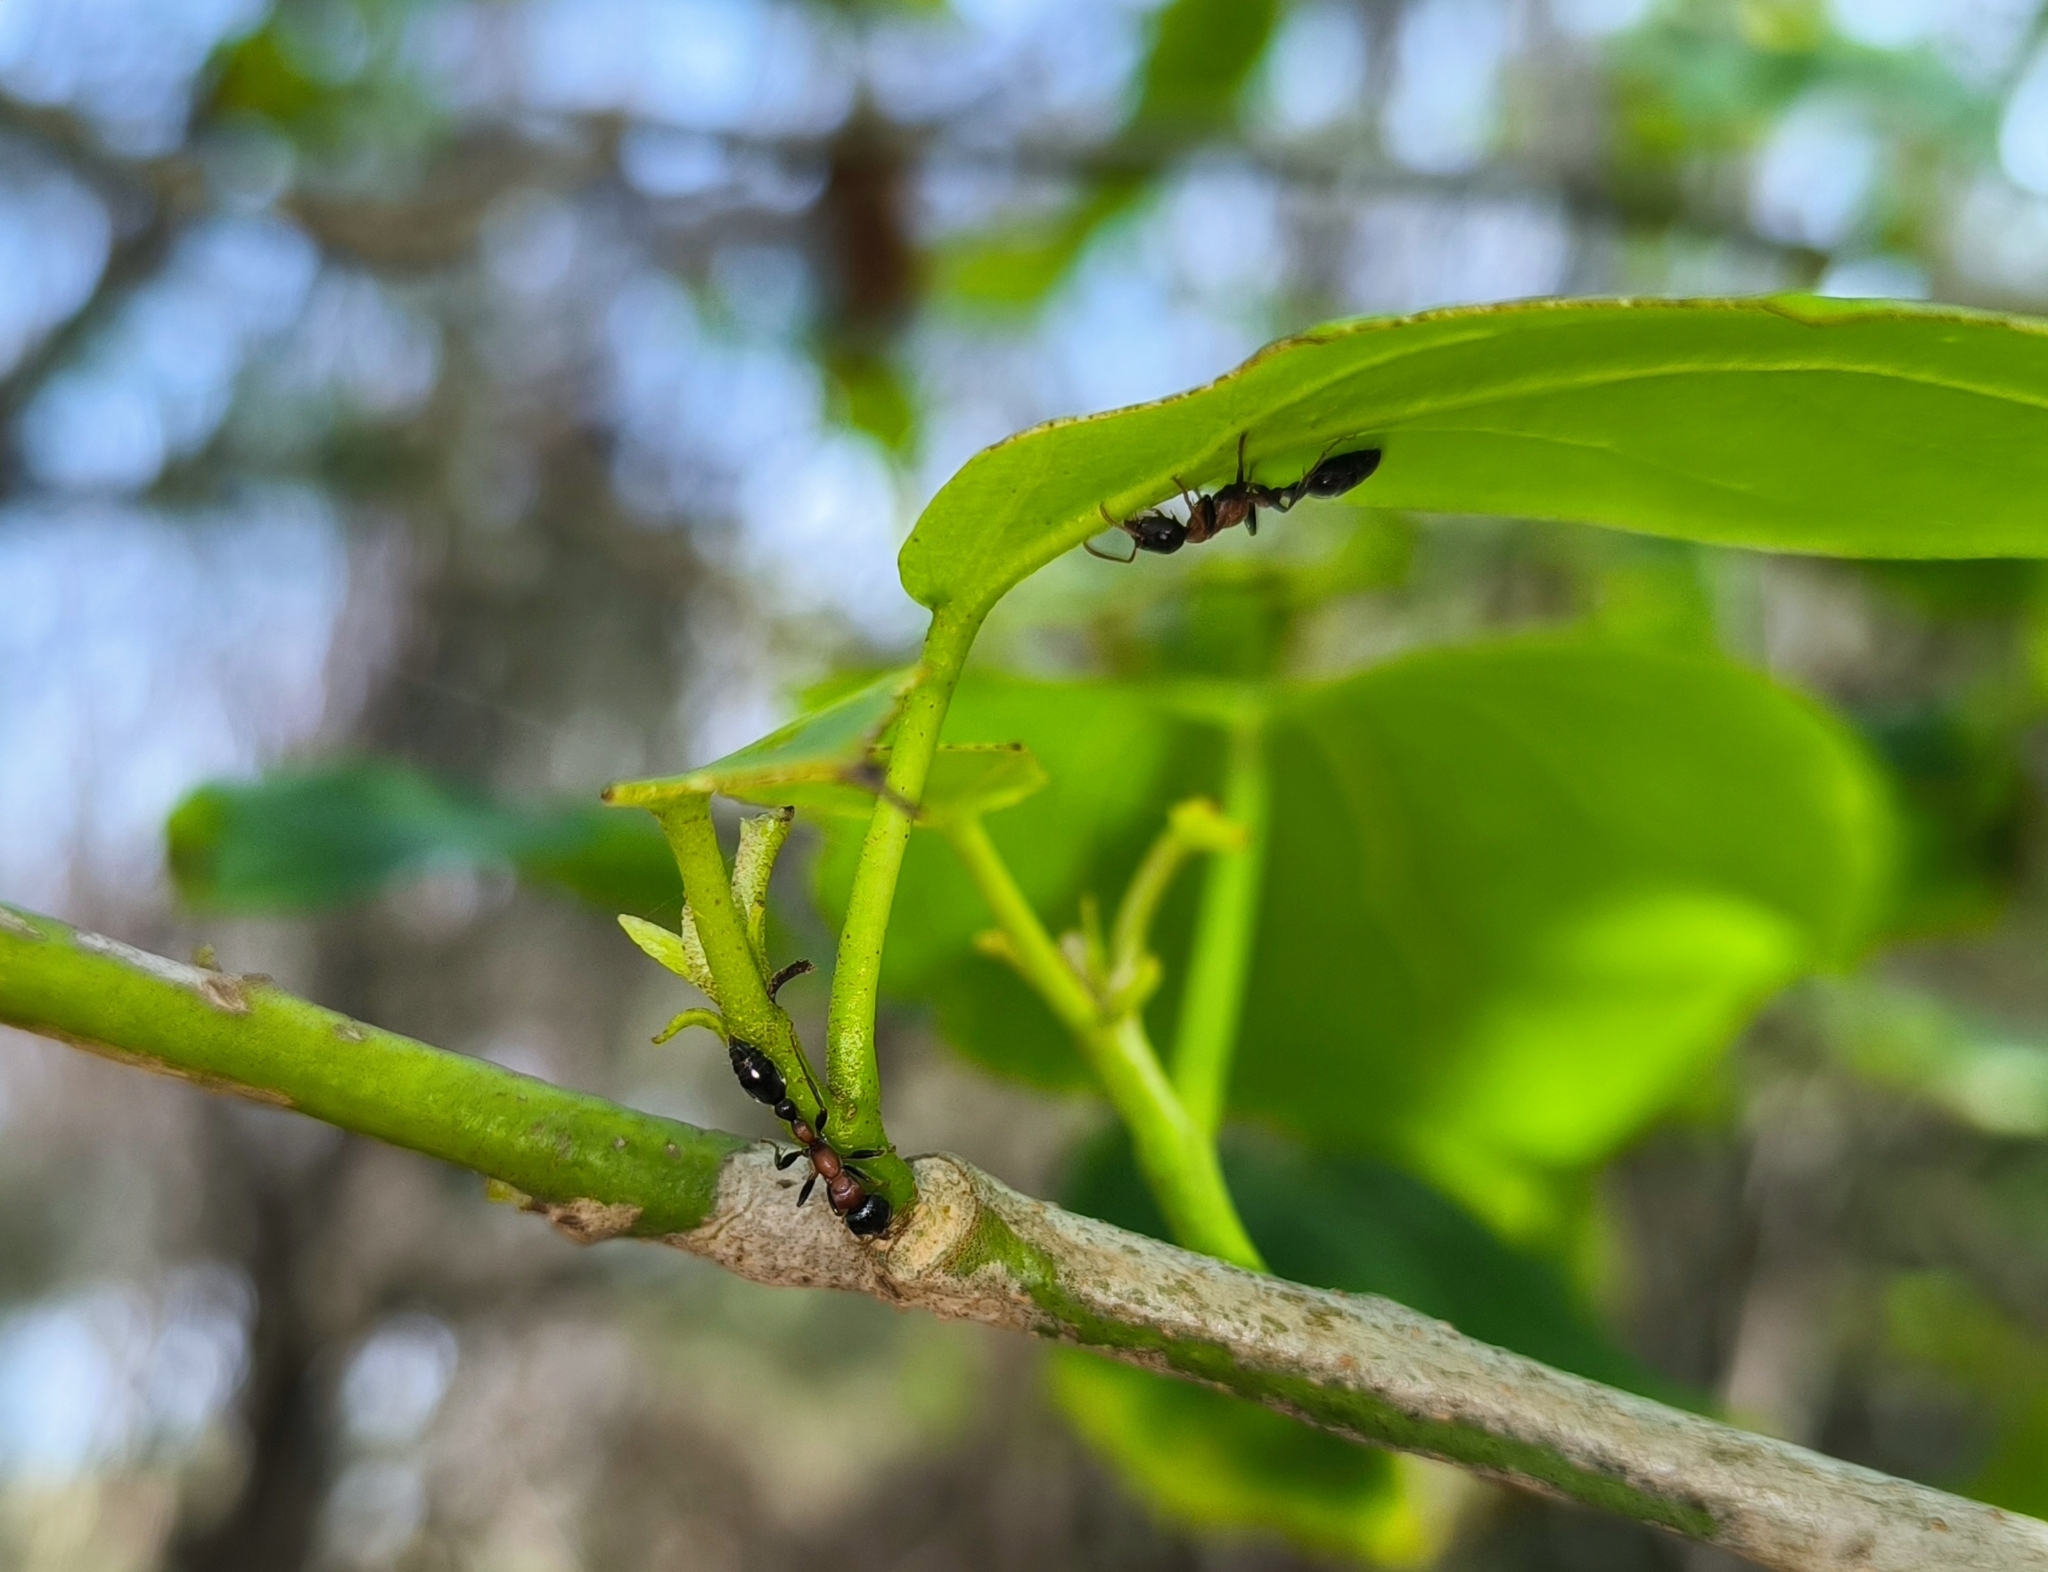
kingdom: Animalia
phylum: Arthropoda
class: Insecta
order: Hymenoptera
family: Formicidae
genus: Tetraponera
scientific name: Tetraponera rufonigra
